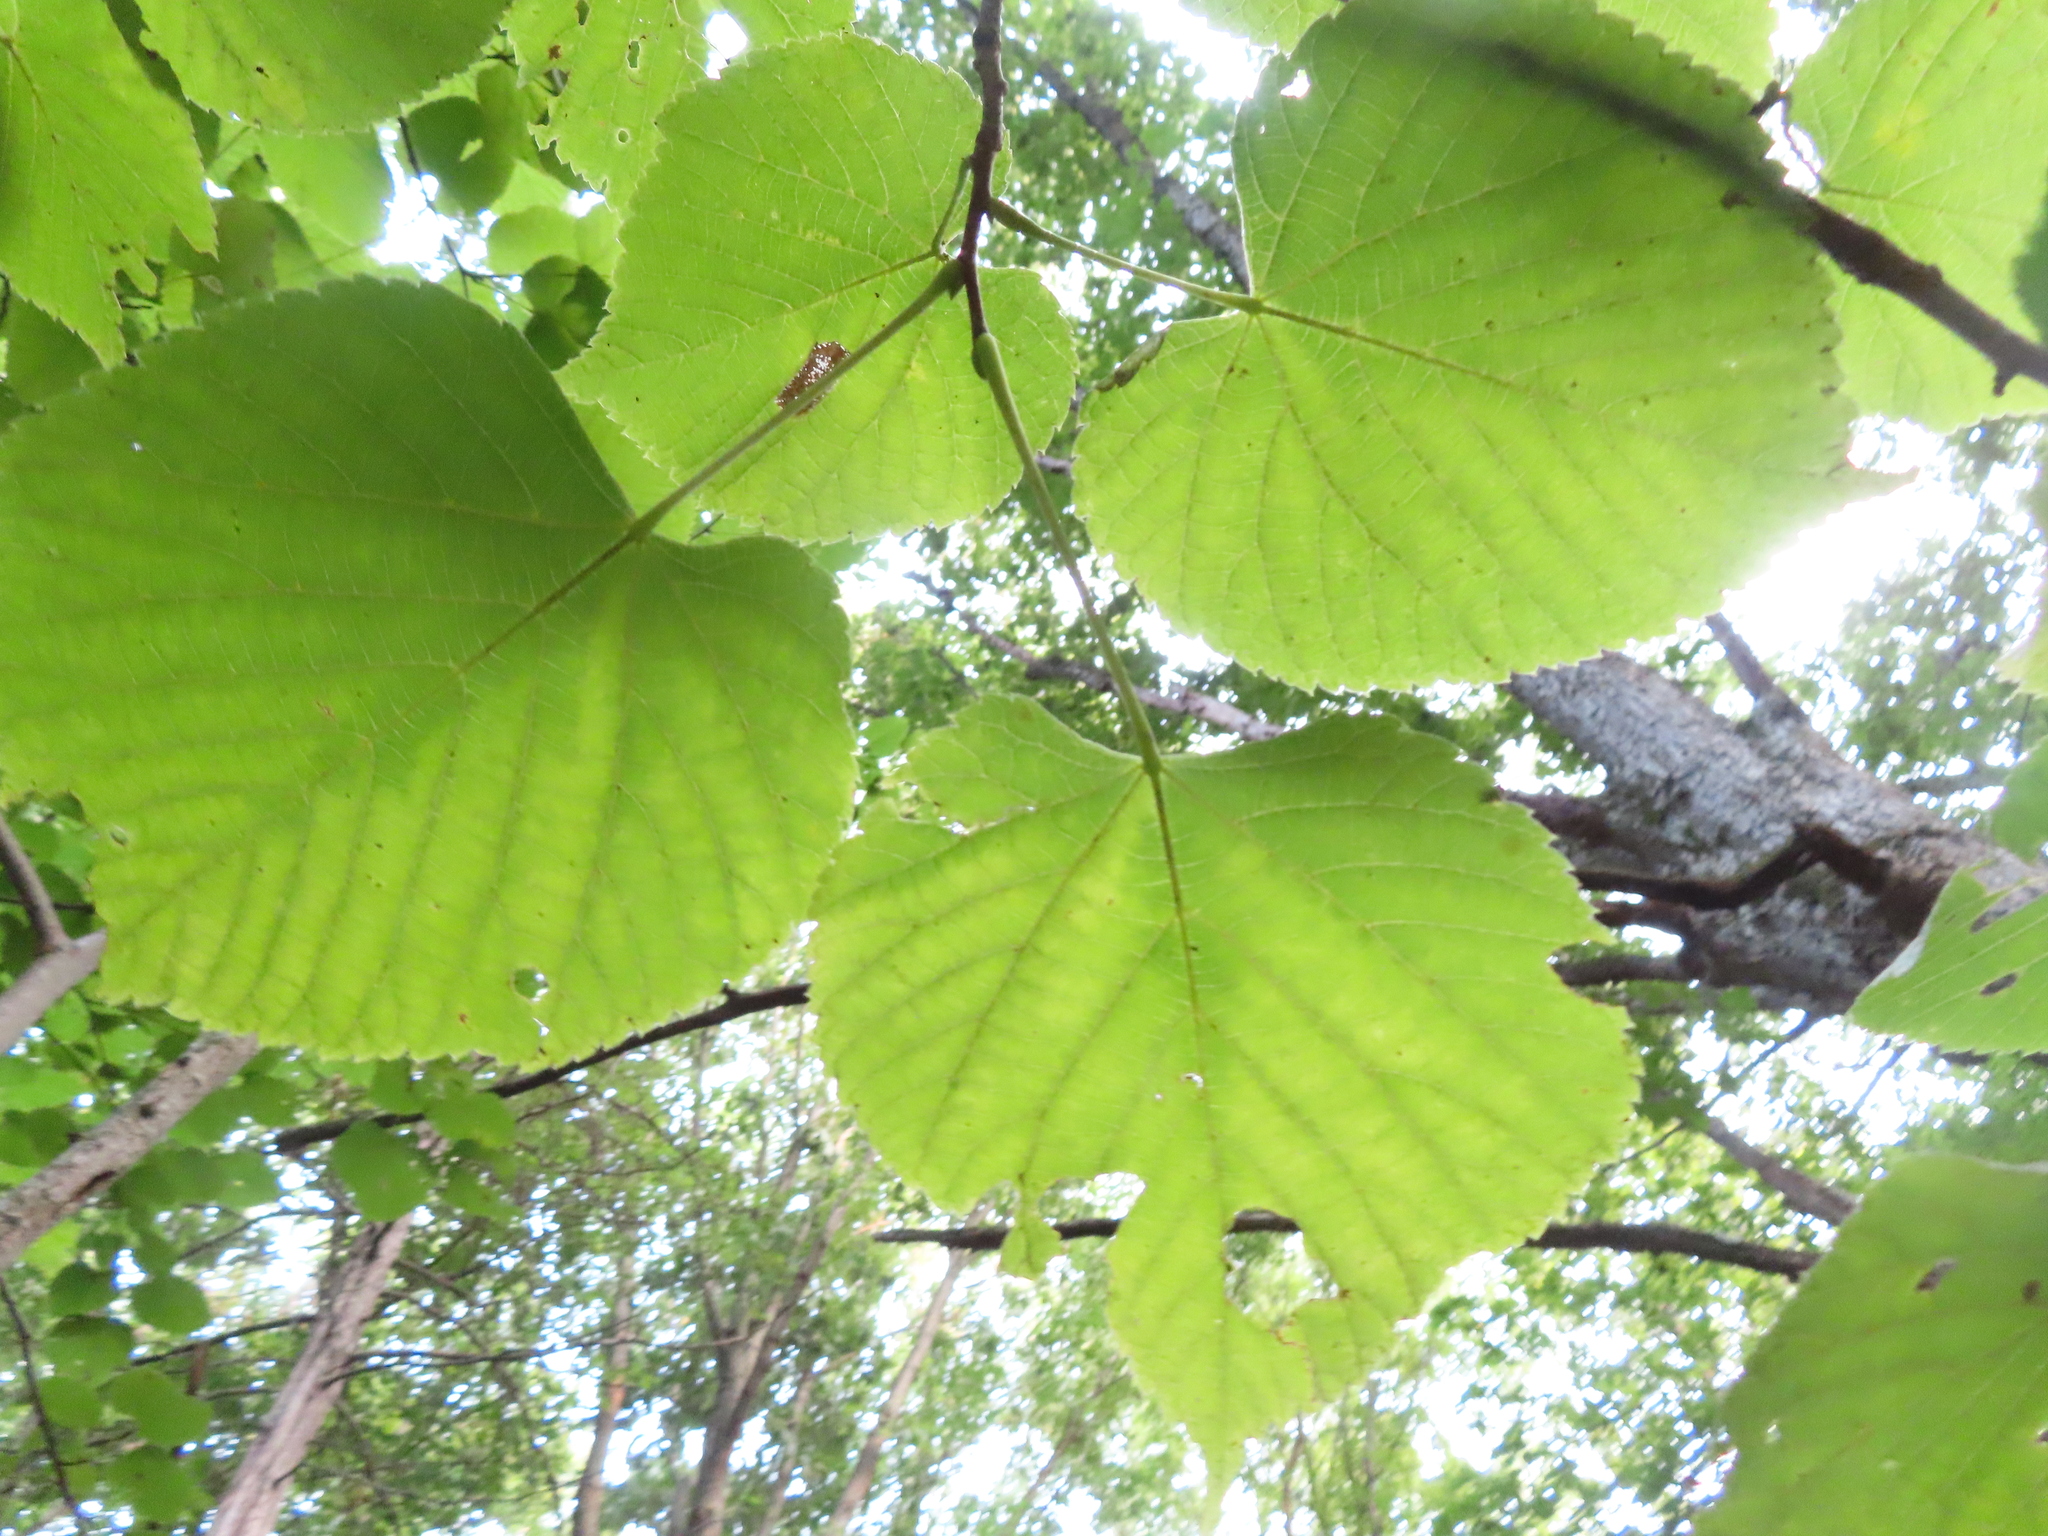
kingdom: Plantae
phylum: Tracheophyta
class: Magnoliopsida
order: Malvales
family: Malvaceae
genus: Tilia
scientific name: Tilia americana
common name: Basswood
